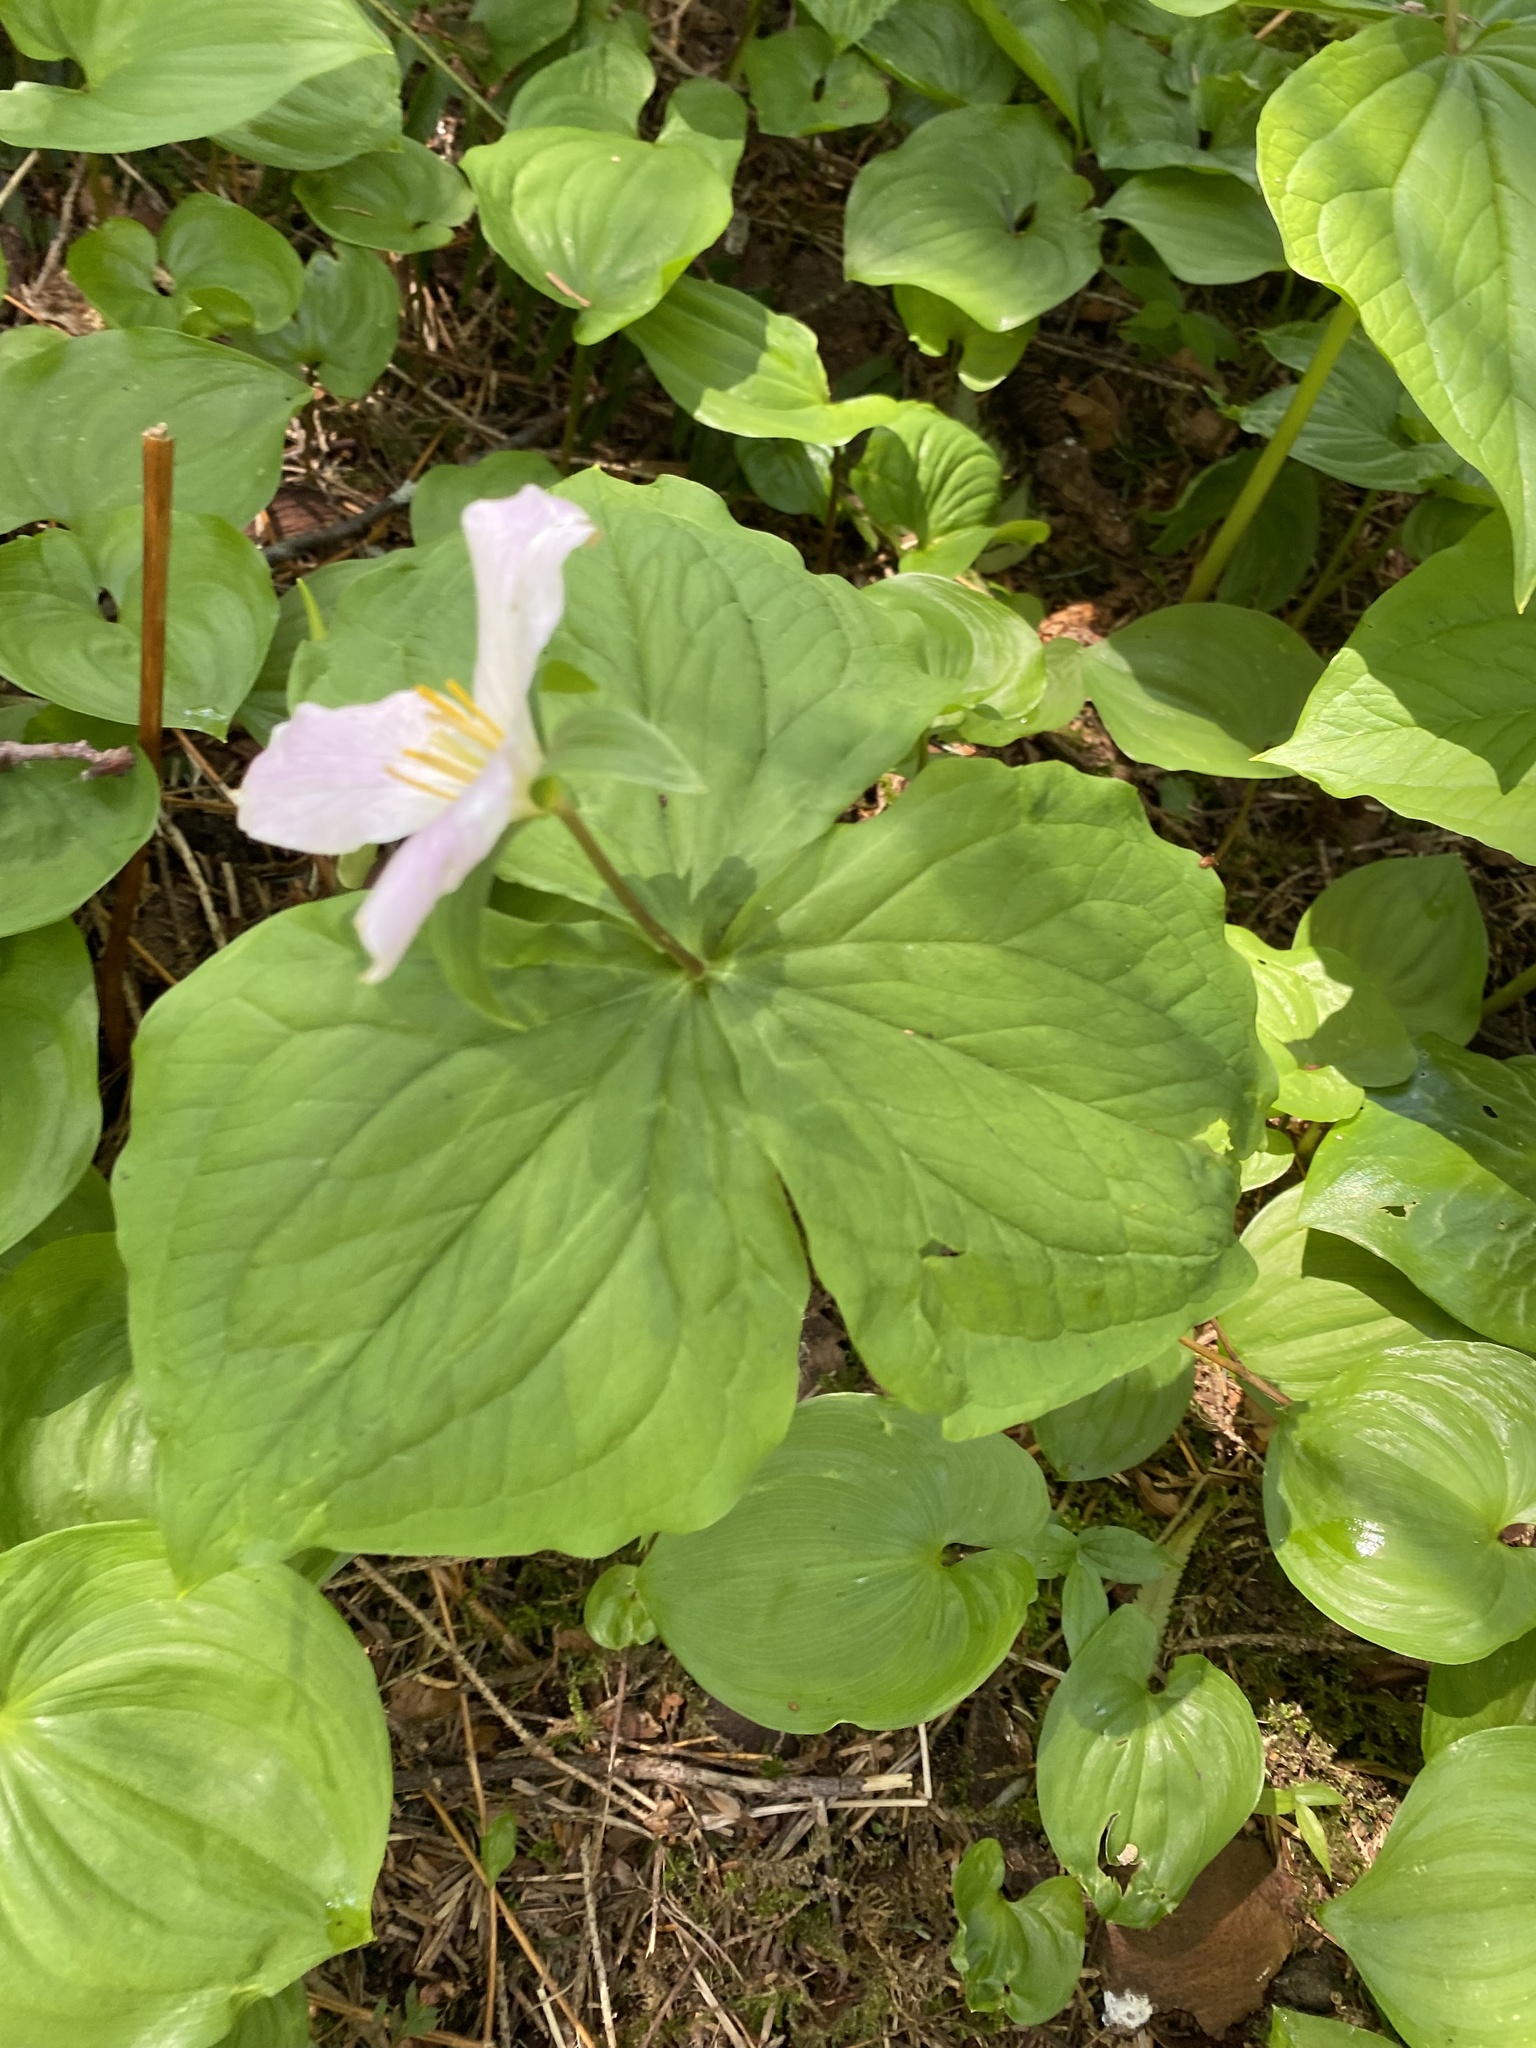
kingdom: Plantae
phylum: Tracheophyta
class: Liliopsida
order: Liliales
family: Melanthiaceae
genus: Trillium
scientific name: Trillium ovatum
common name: Pacific trillium
